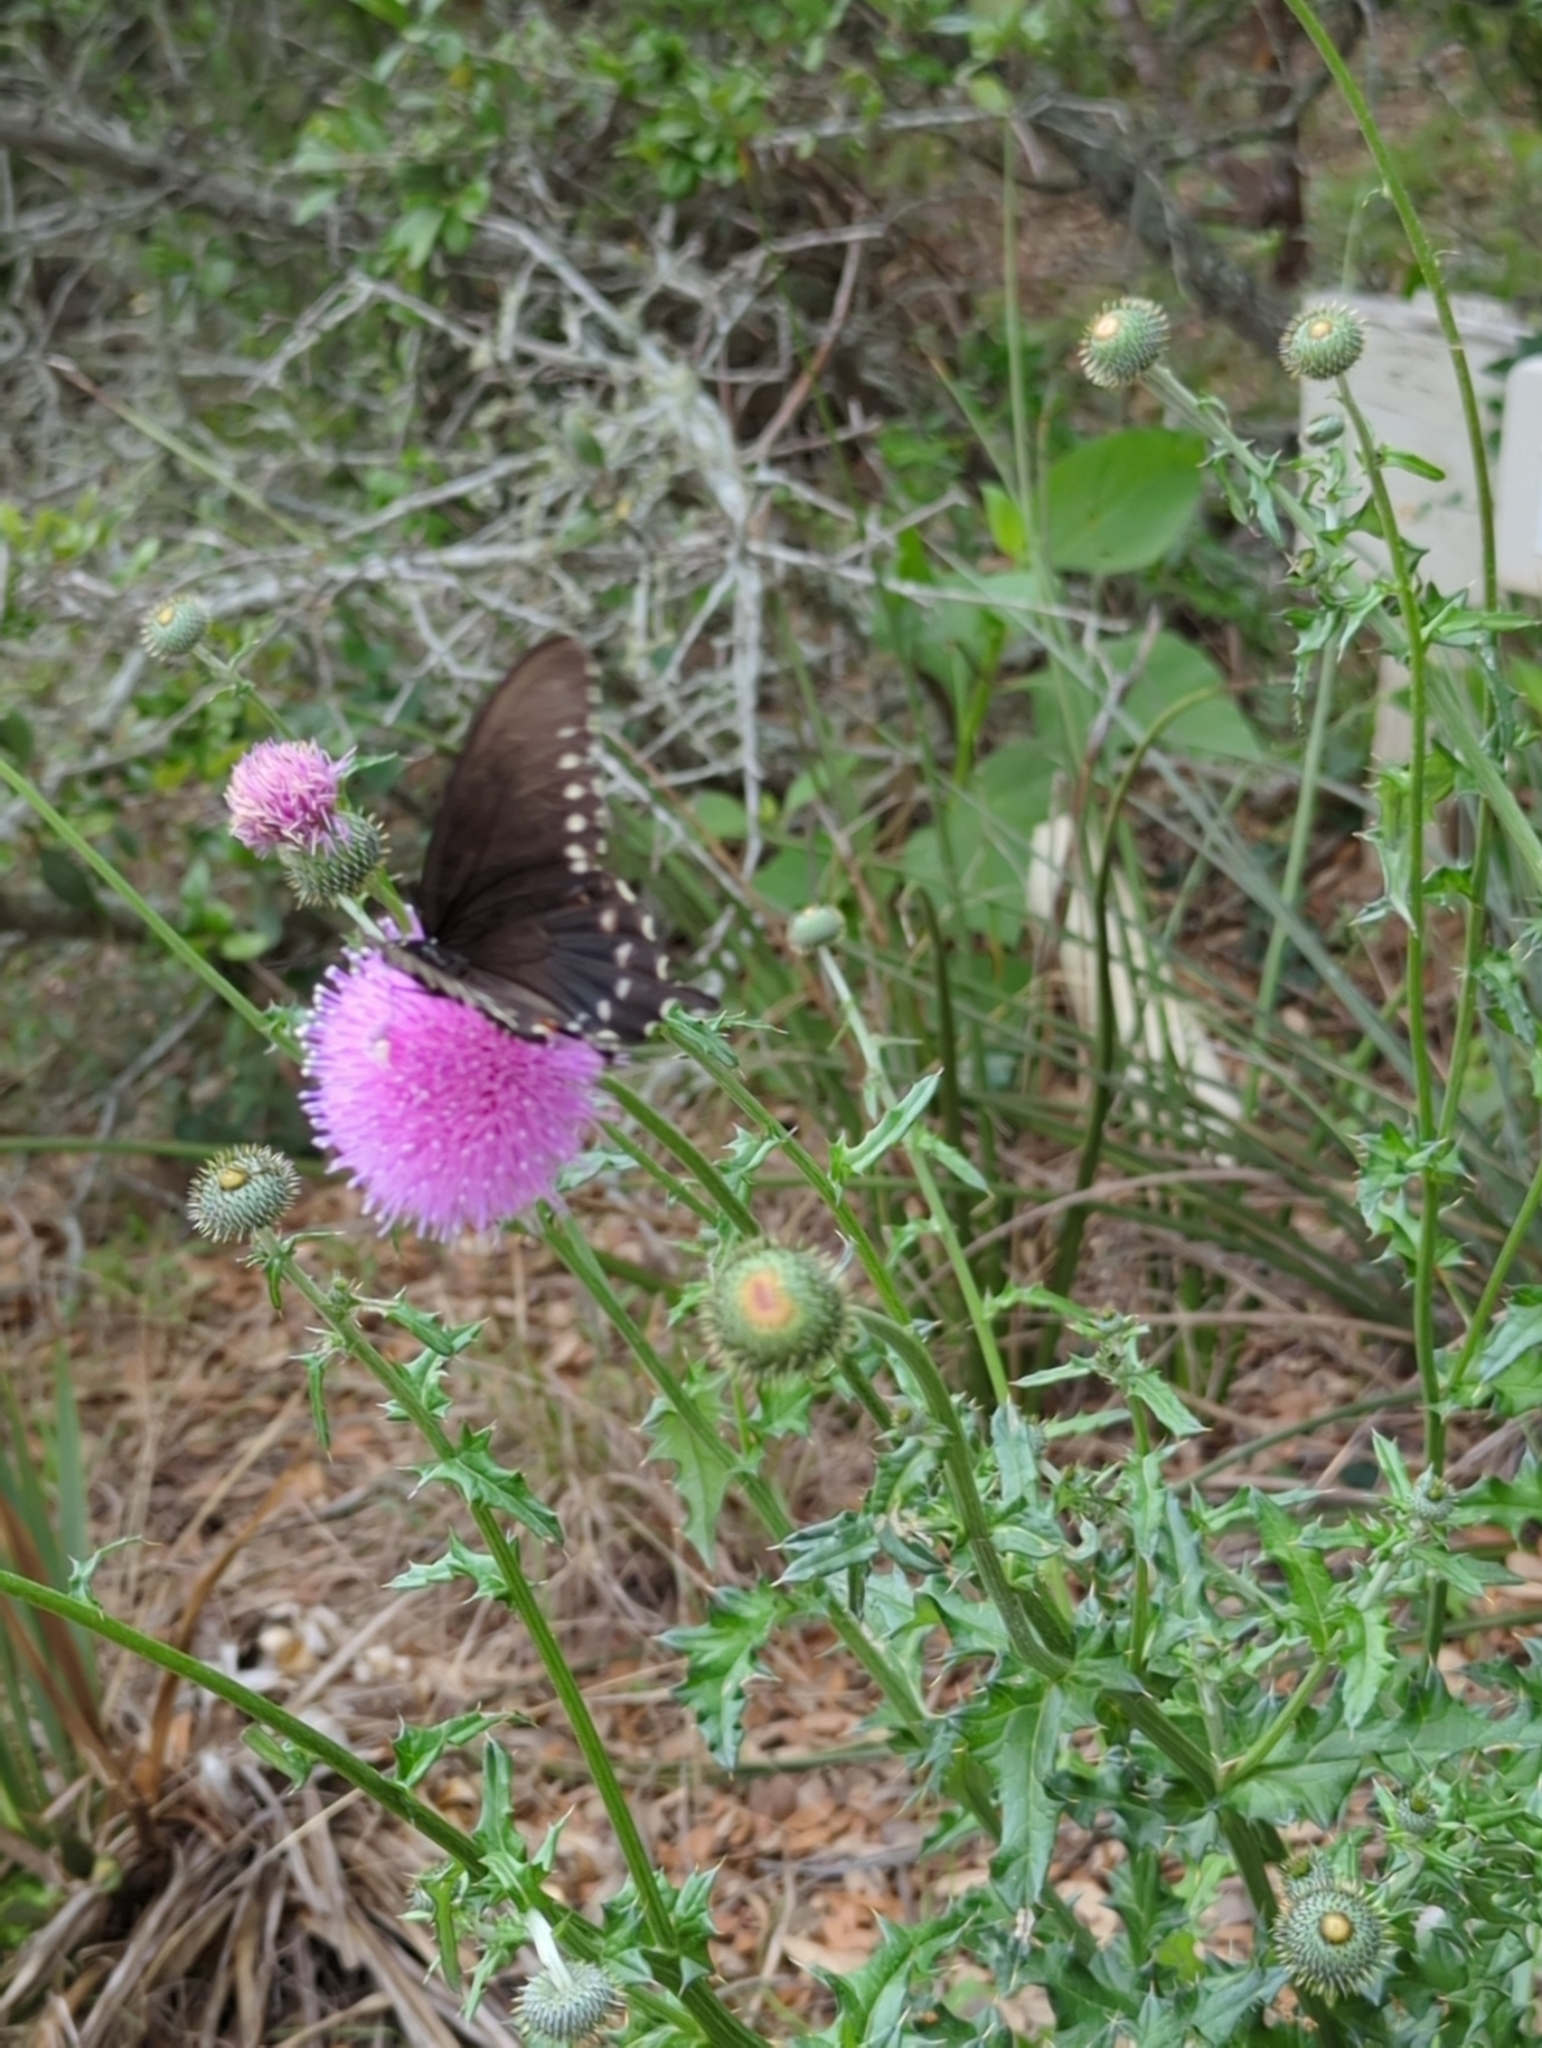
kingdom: Animalia
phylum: Arthropoda
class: Insecta
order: Lepidoptera
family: Papilionidae
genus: Battus
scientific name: Battus philenor
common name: Pipevine swallowtail
